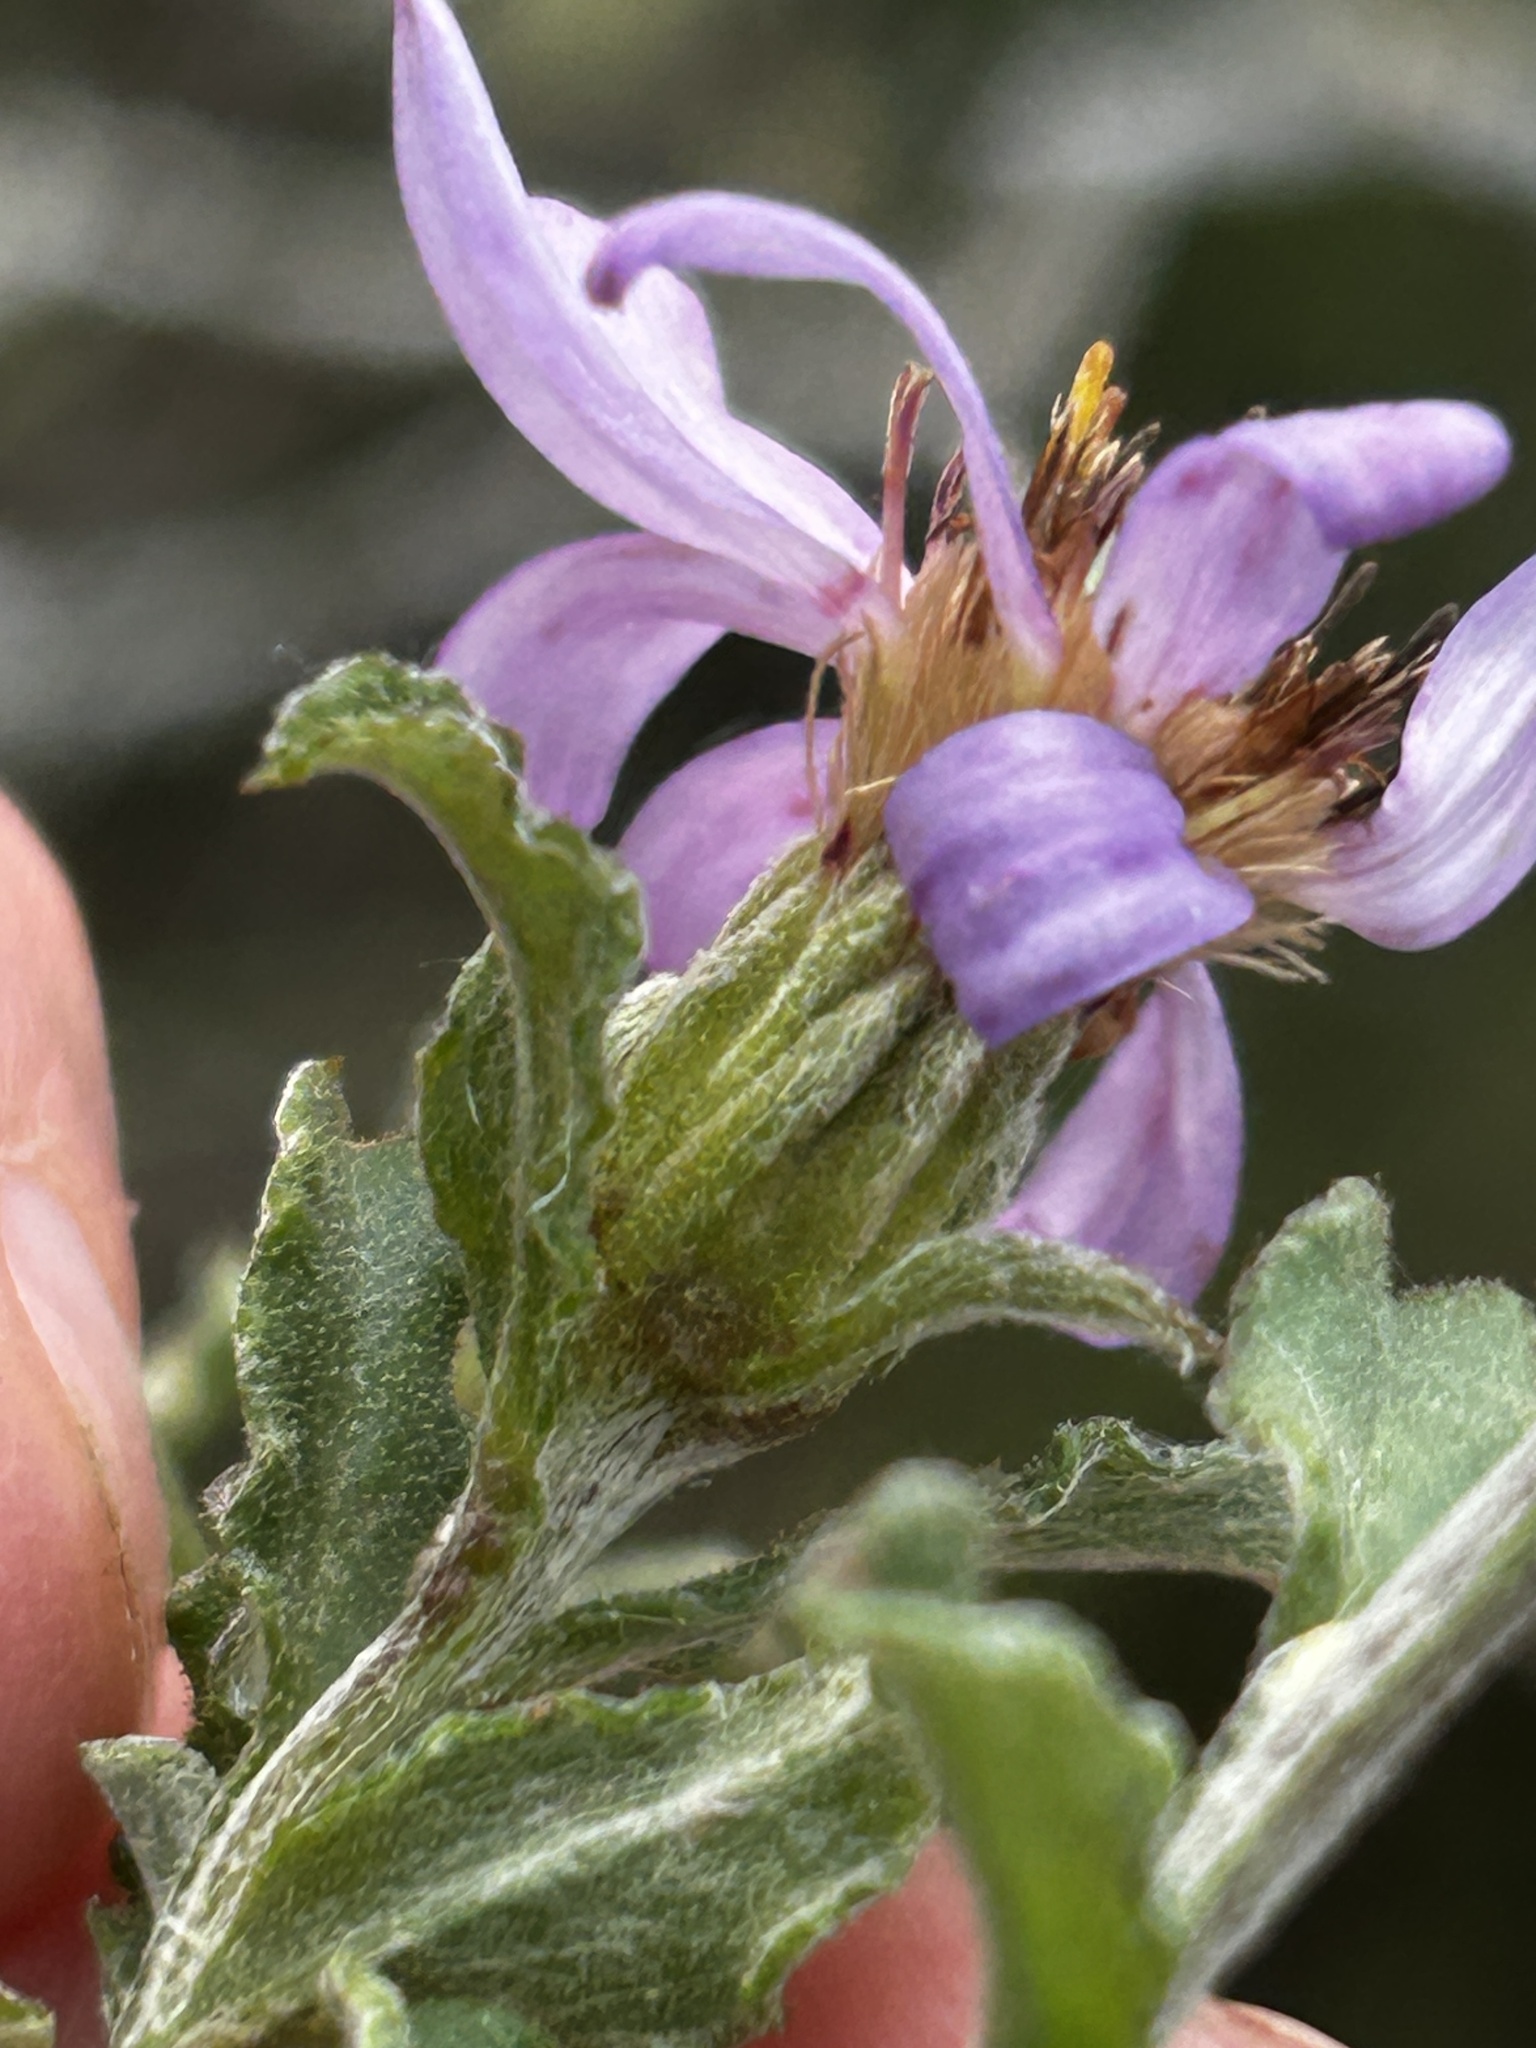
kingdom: Plantae
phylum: Tracheophyta
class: Magnoliopsida
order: Asterales
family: Asteraceae
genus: Printzia
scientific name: Printzia polifolia
